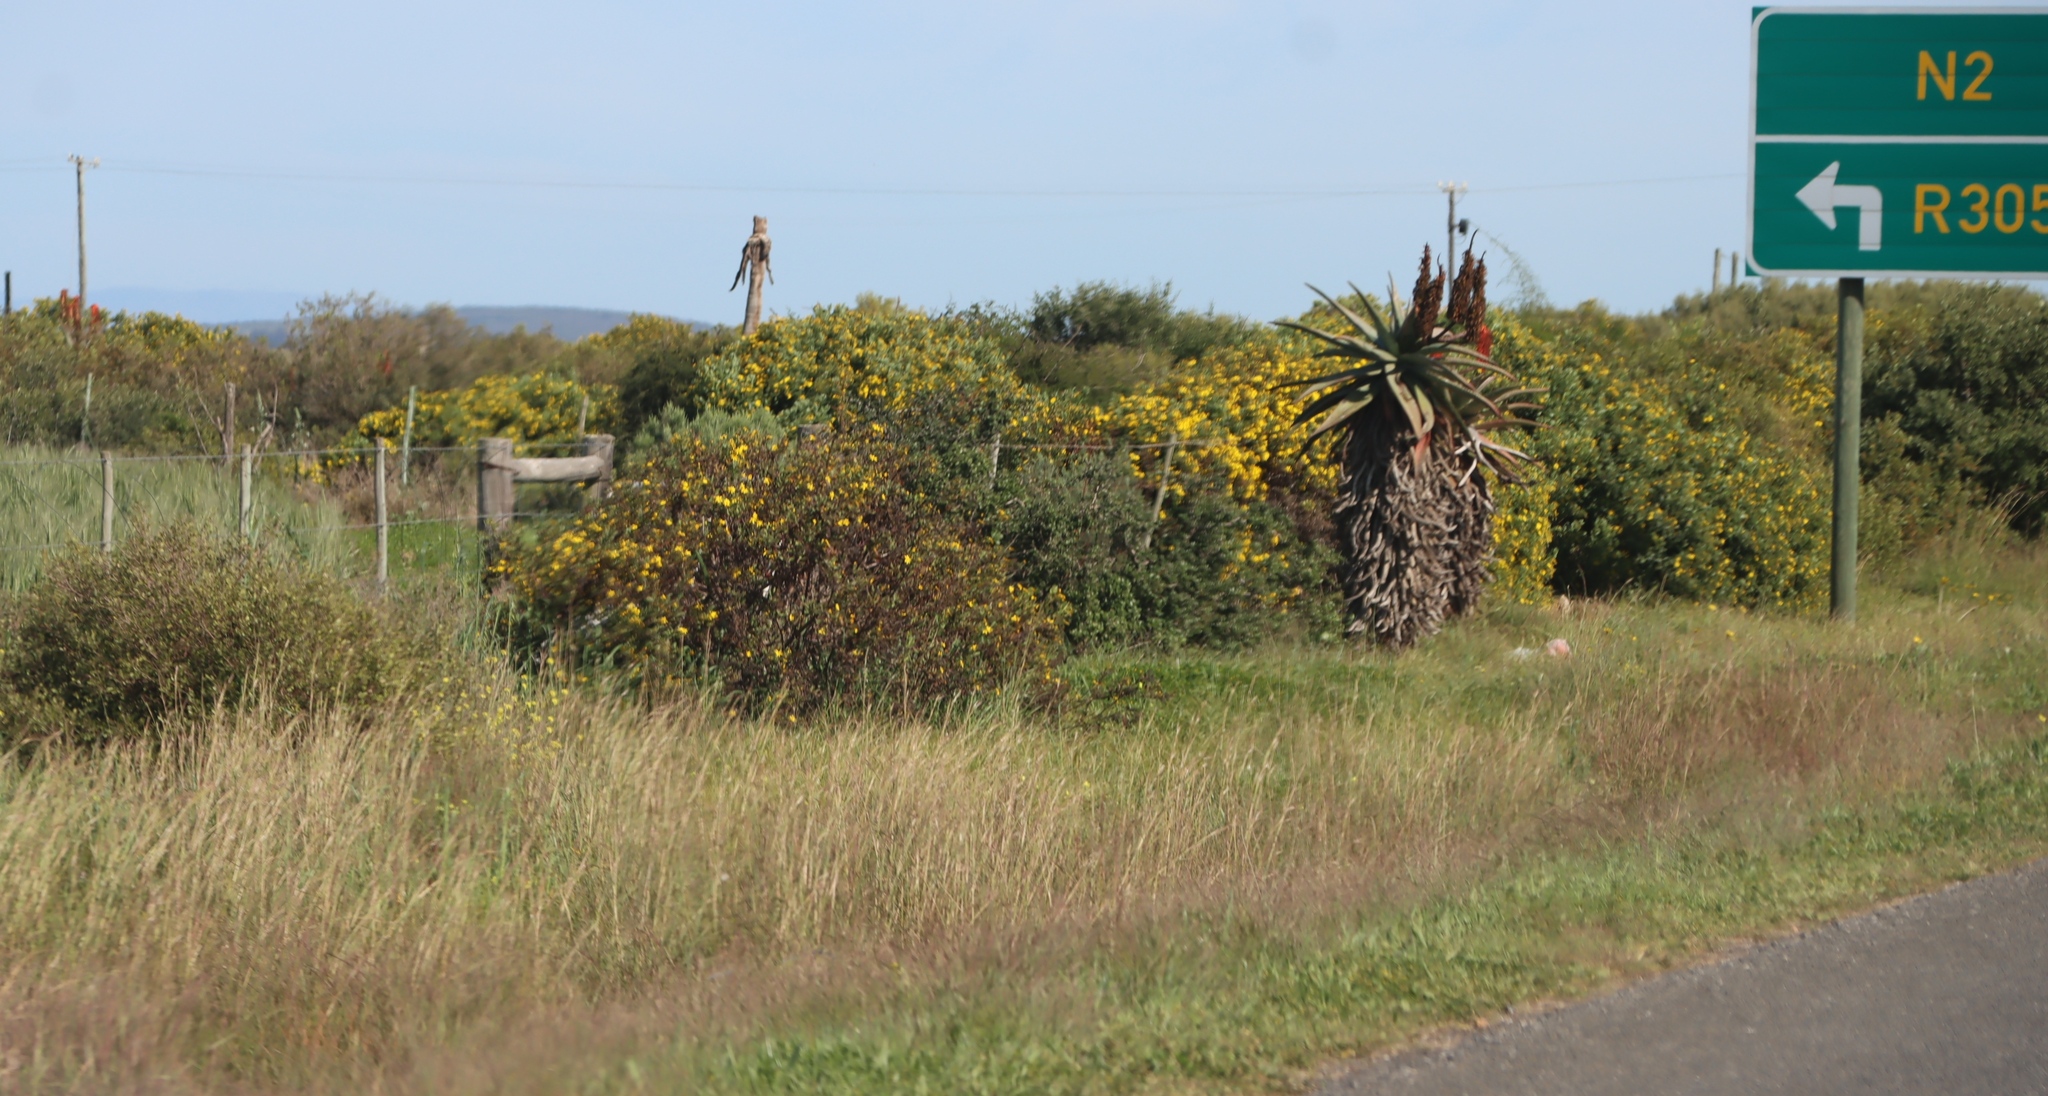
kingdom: Plantae
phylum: Tracheophyta
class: Magnoliopsida
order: Asterales
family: Asteraceae
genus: Osteospermum
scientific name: Osteospermum moniliferum
